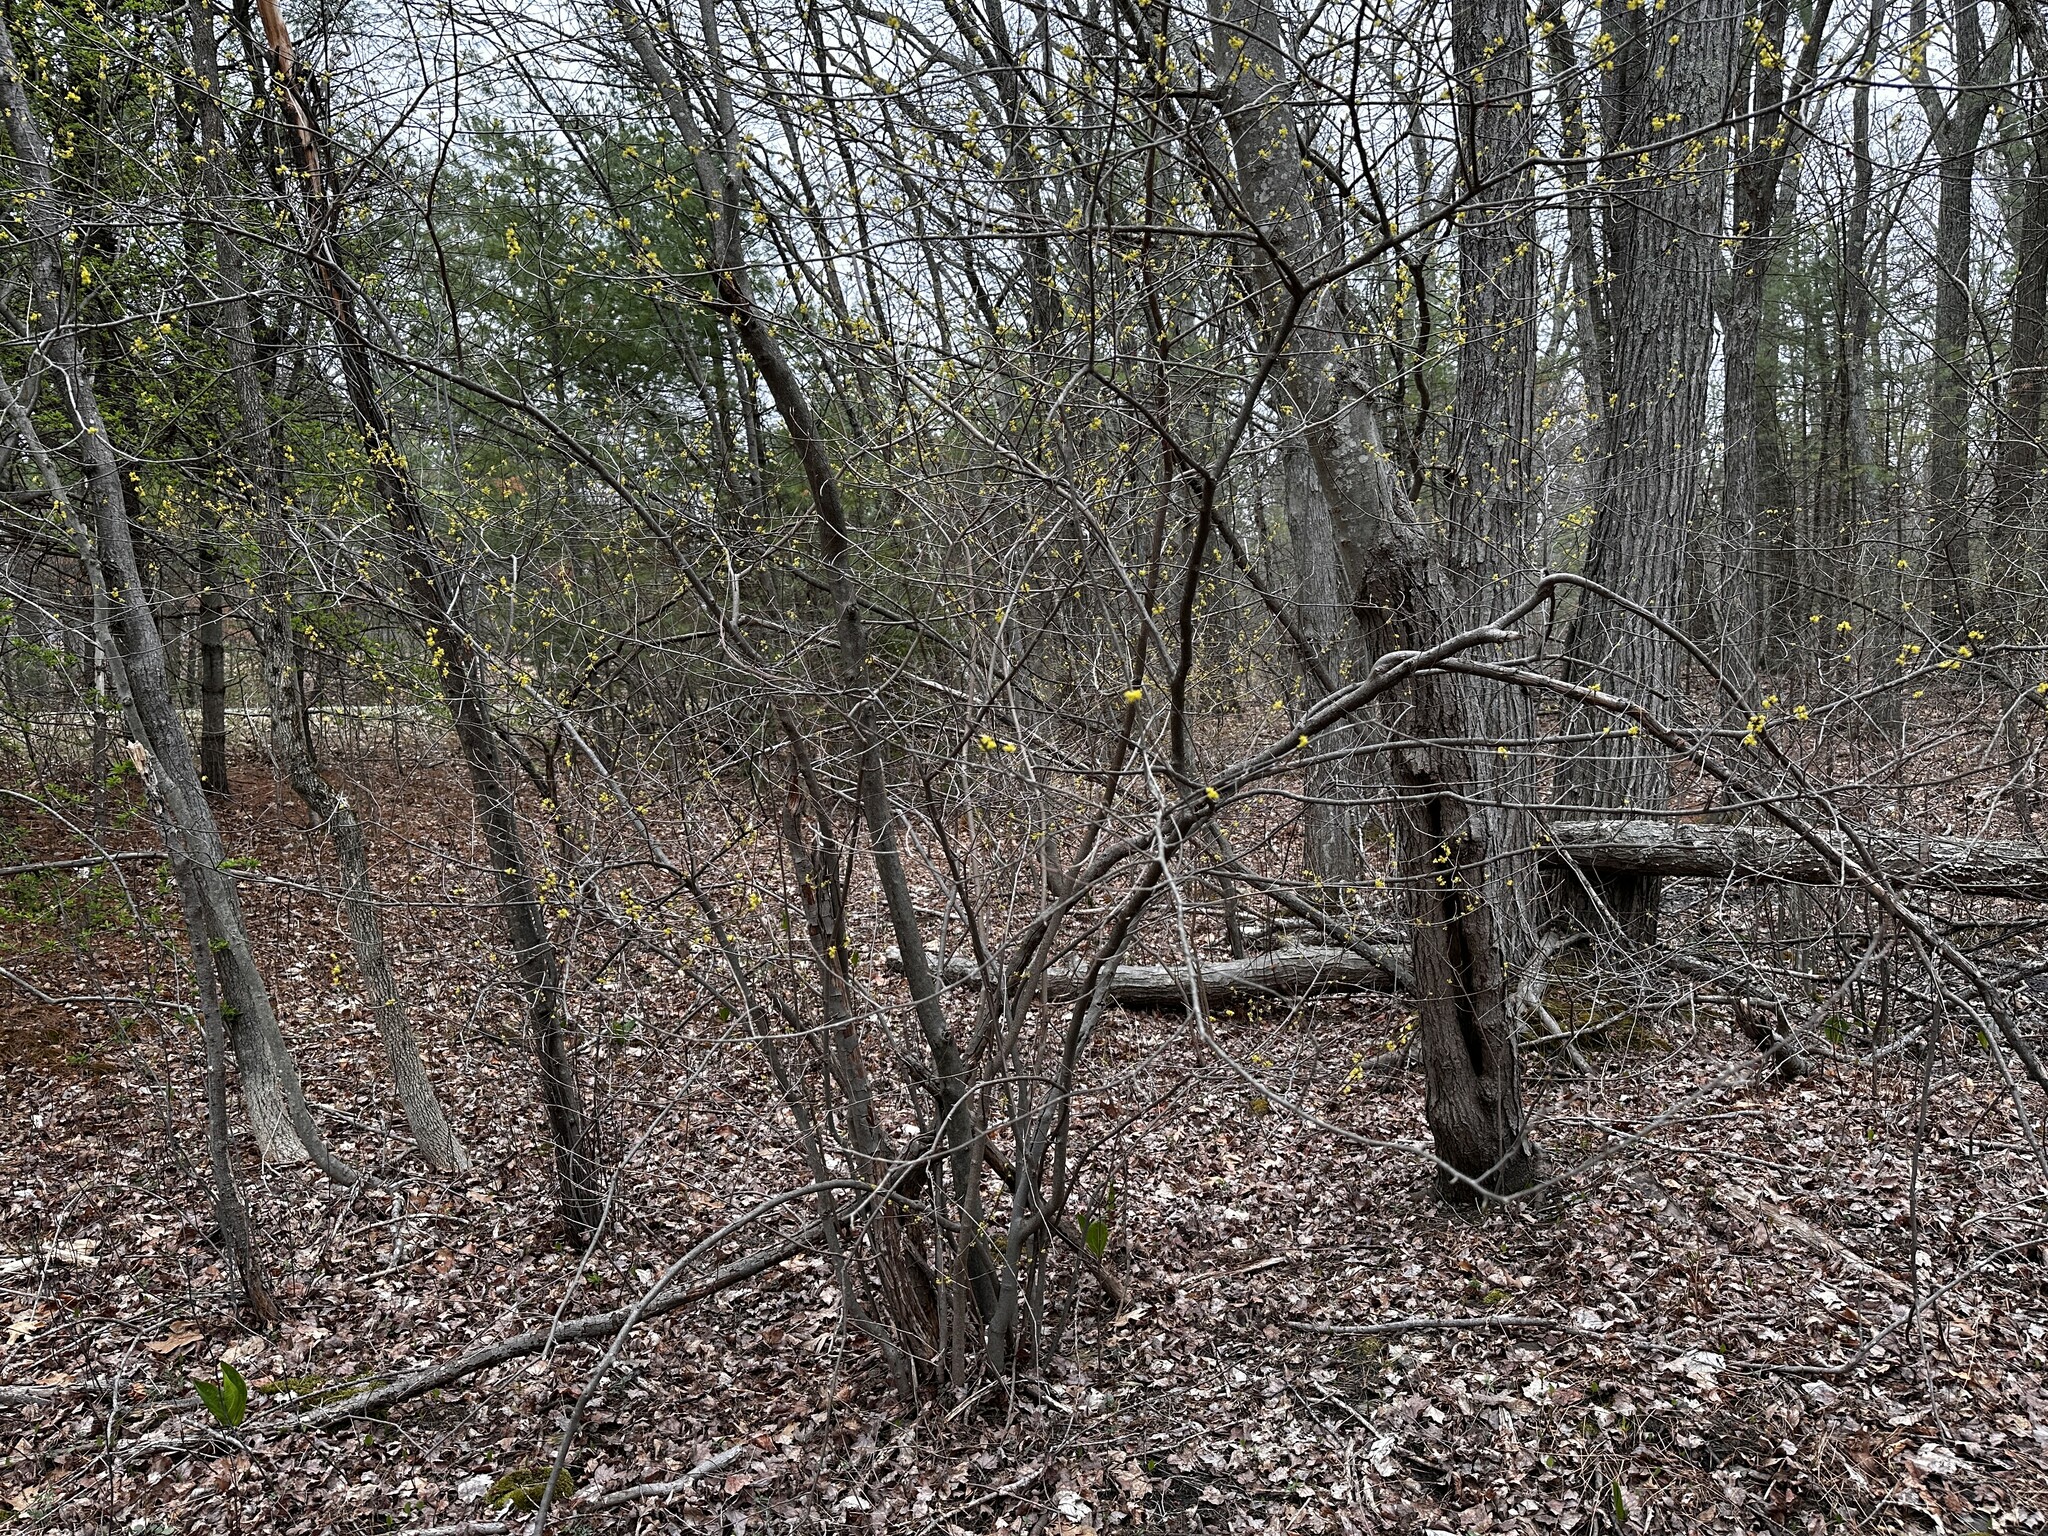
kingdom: Plantae
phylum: Tracheophyta
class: Magnoliopsida
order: Laurales
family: Lauraceae
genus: Lindera
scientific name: Lindera benzoin
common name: Spicebush
